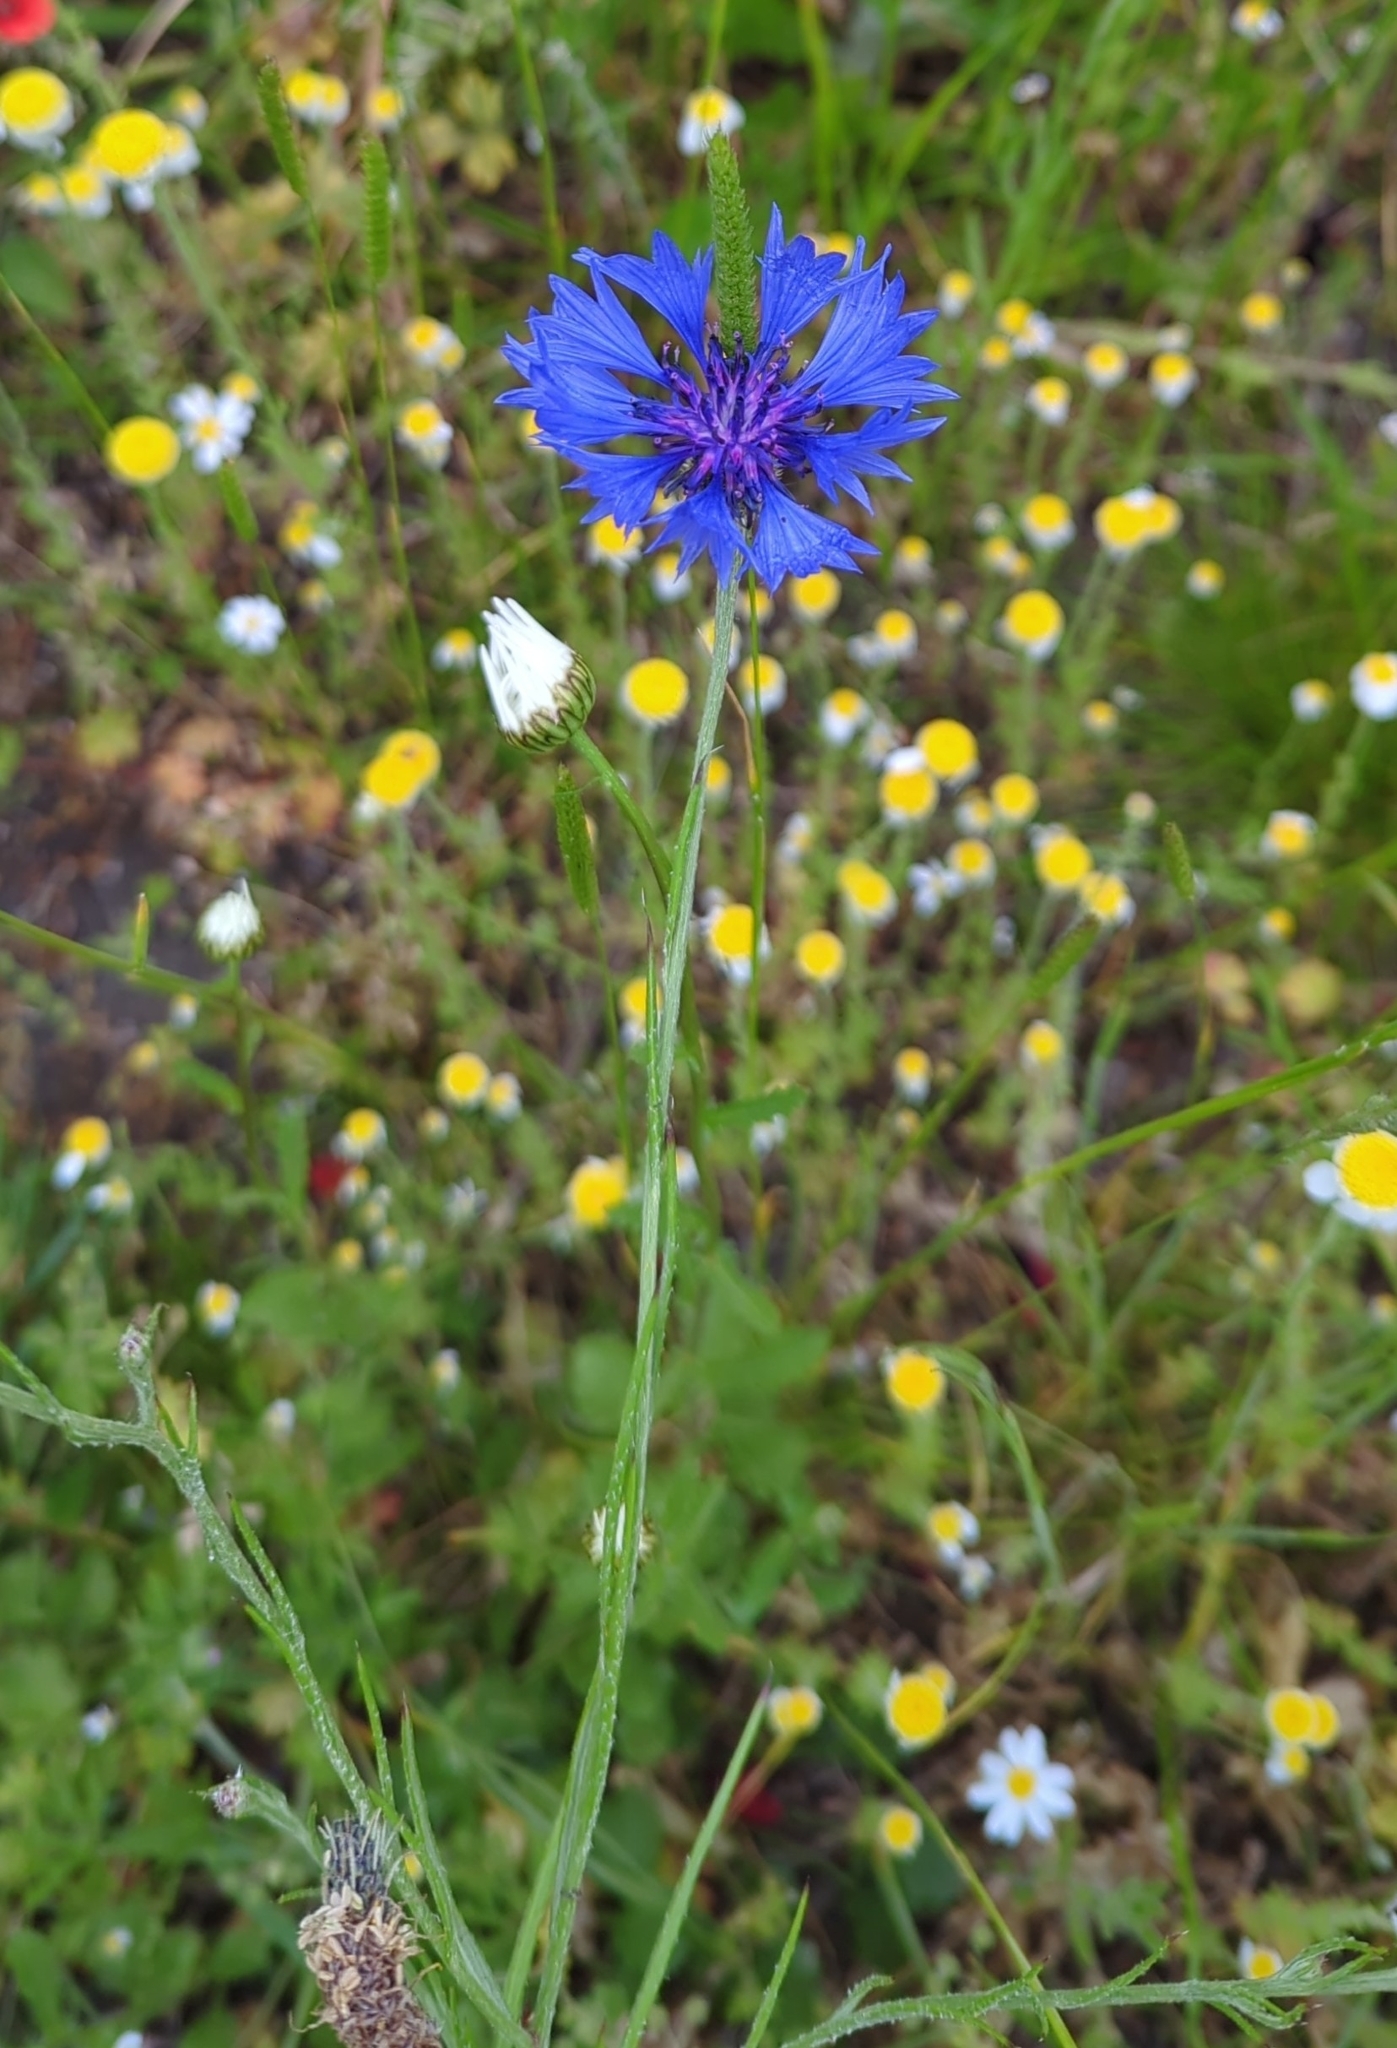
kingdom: Plantae
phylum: Tracheophyta
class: Magnoliopsida
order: Asterales
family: Asteraceae
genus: Centaurea
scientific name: Centaurea cyanus
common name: Cornflower
